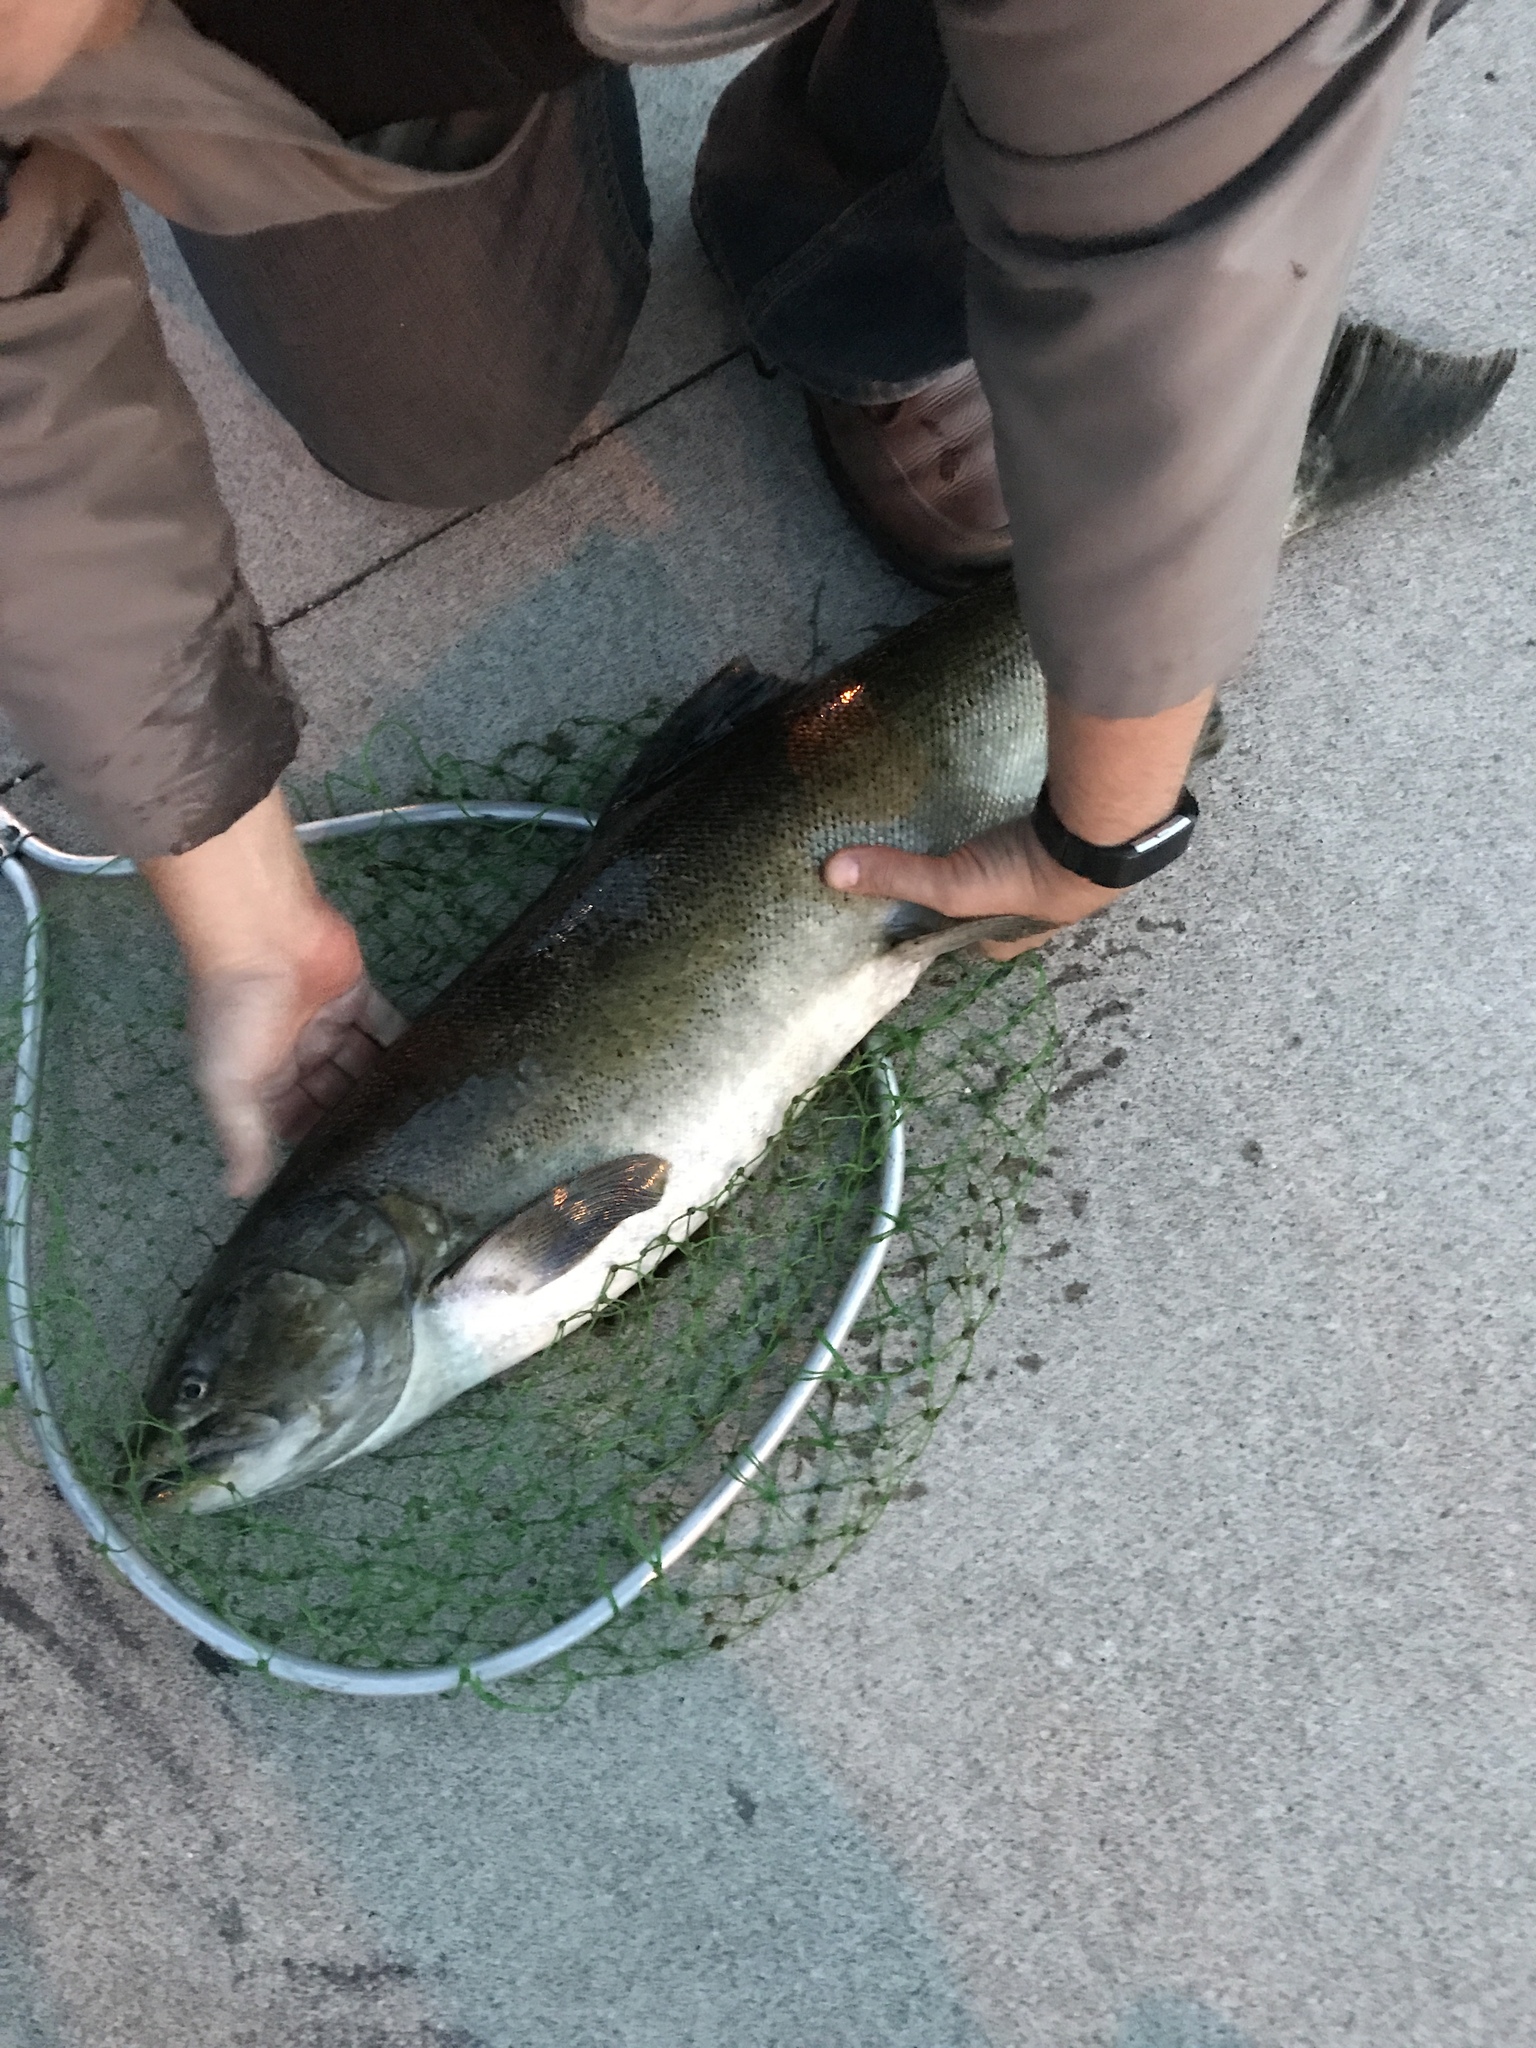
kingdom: Animalia
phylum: Chordata
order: Salmoniformes
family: Salmonidae
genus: Oncorhynchus
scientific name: Oncorhynchus tshawytscha
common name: Chinook salmon
